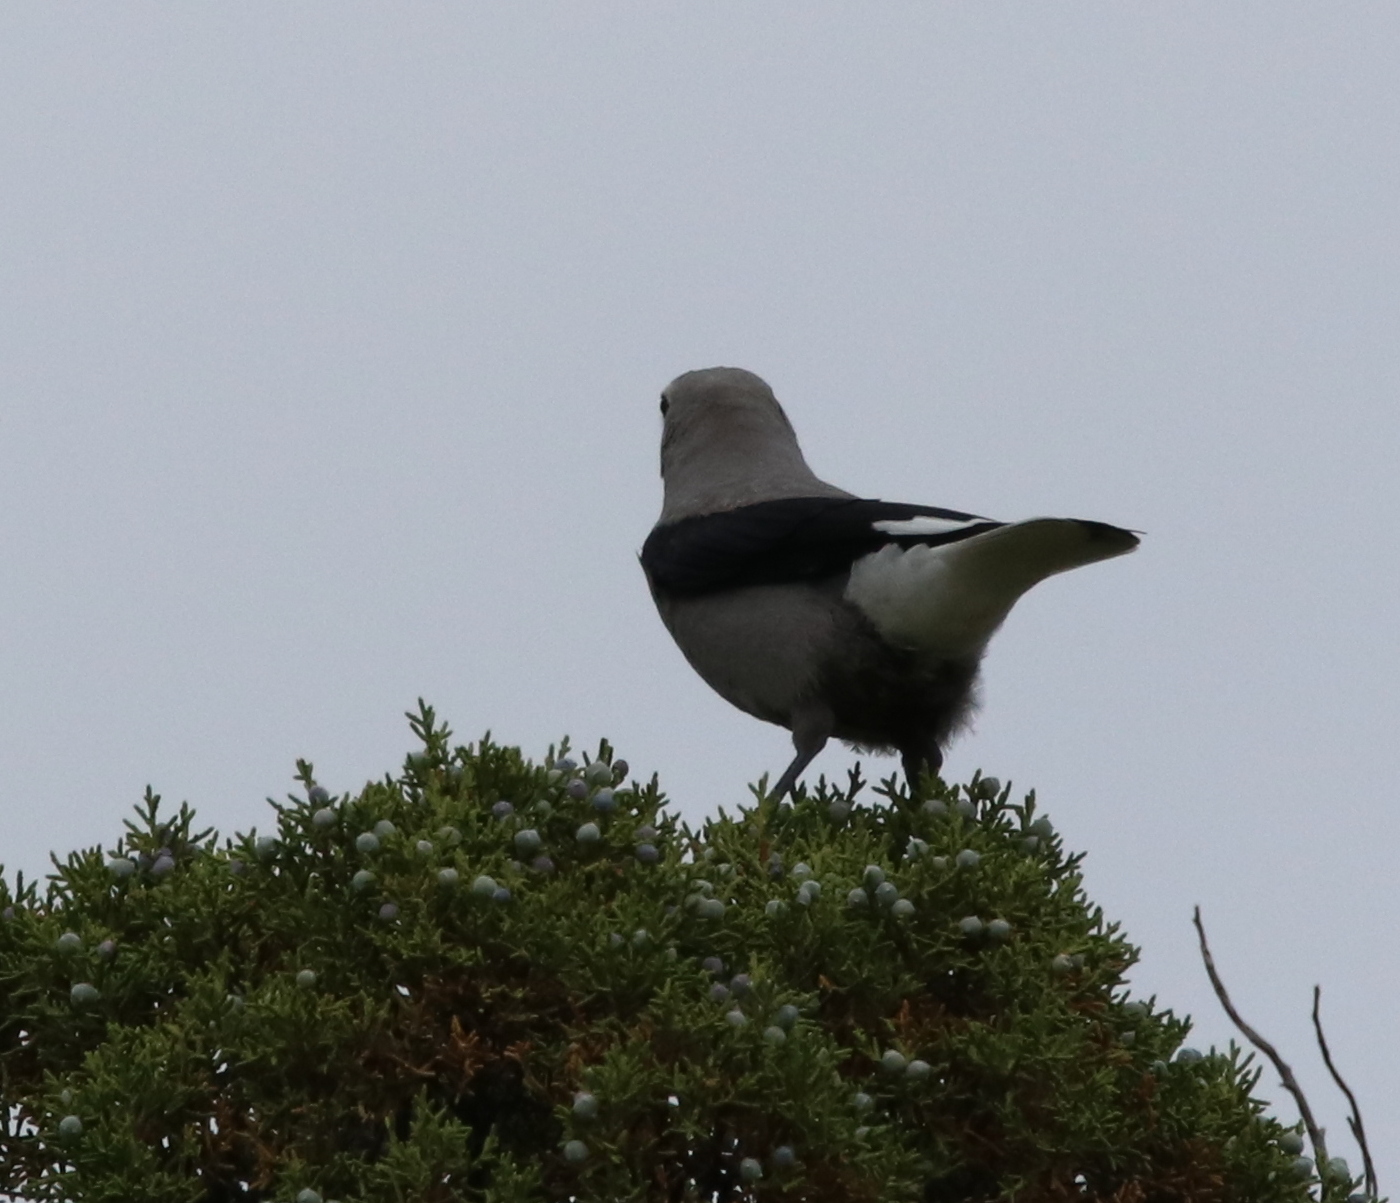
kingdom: Animalia
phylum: Chordata
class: Aves
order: Passeriformes
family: Corvidae
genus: Nucifraga
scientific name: Nucifraga columbiana
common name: Clark's nutcracker
